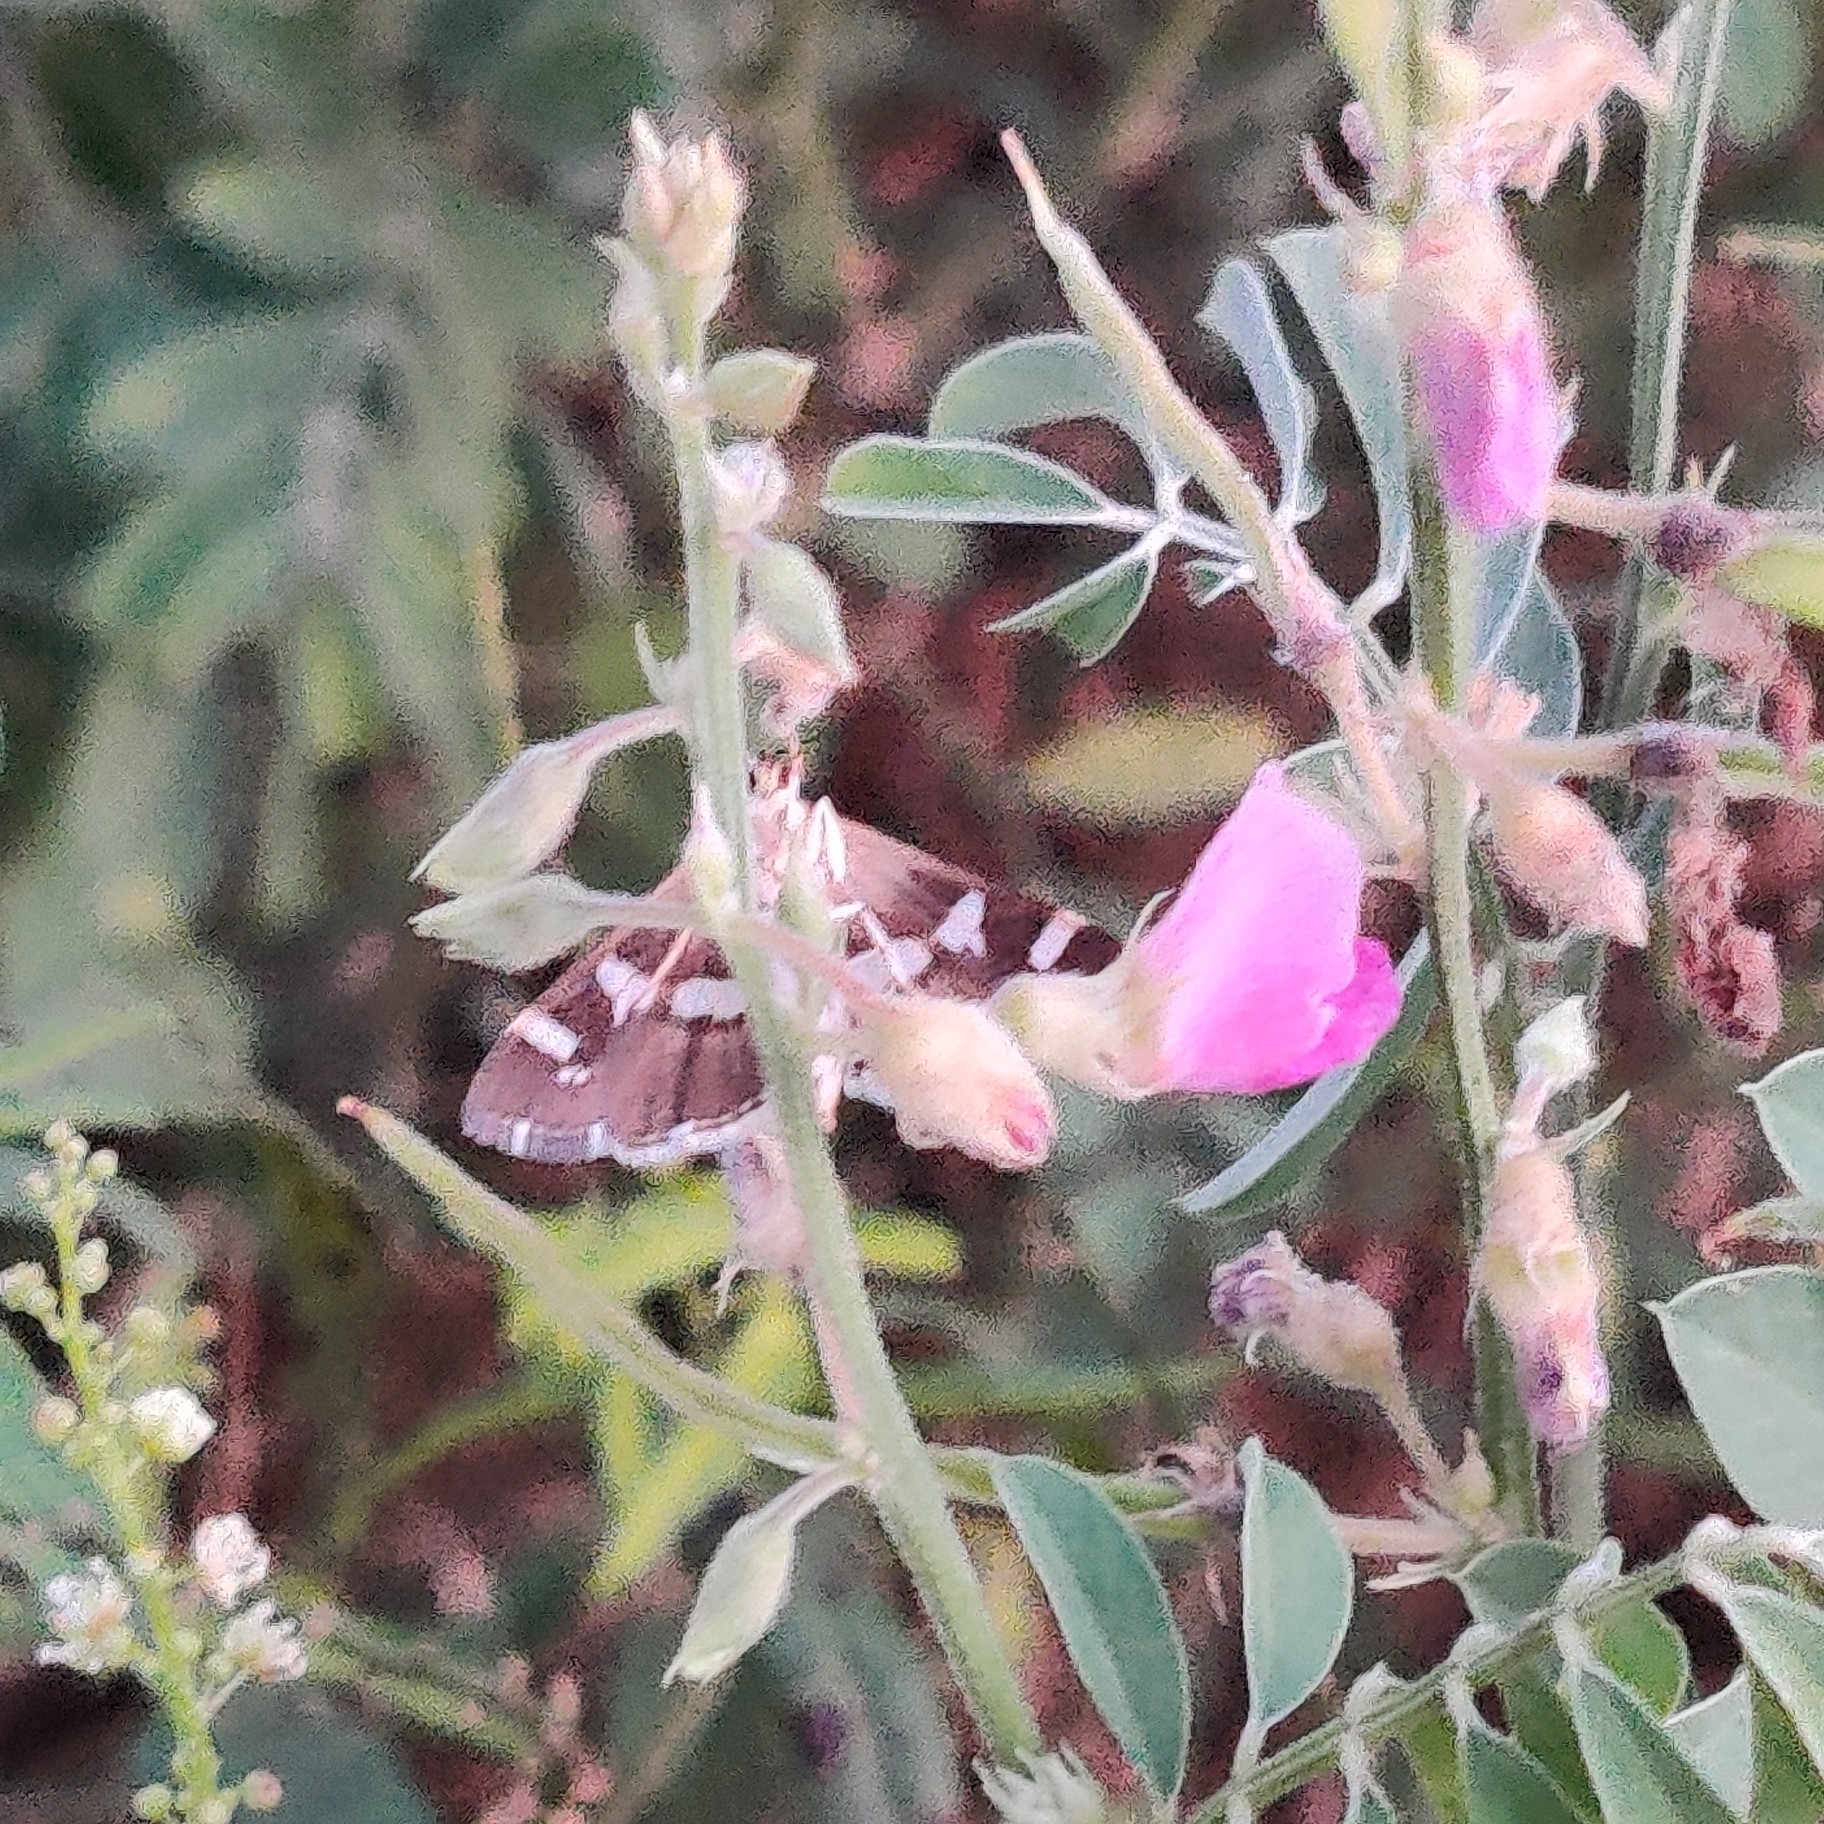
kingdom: Animalia
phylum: Arthropoda
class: Insecta
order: Lepidoptera
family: Crambidae
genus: Spoladea
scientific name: Spoladea recurvalis
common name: Beet webworm moth
